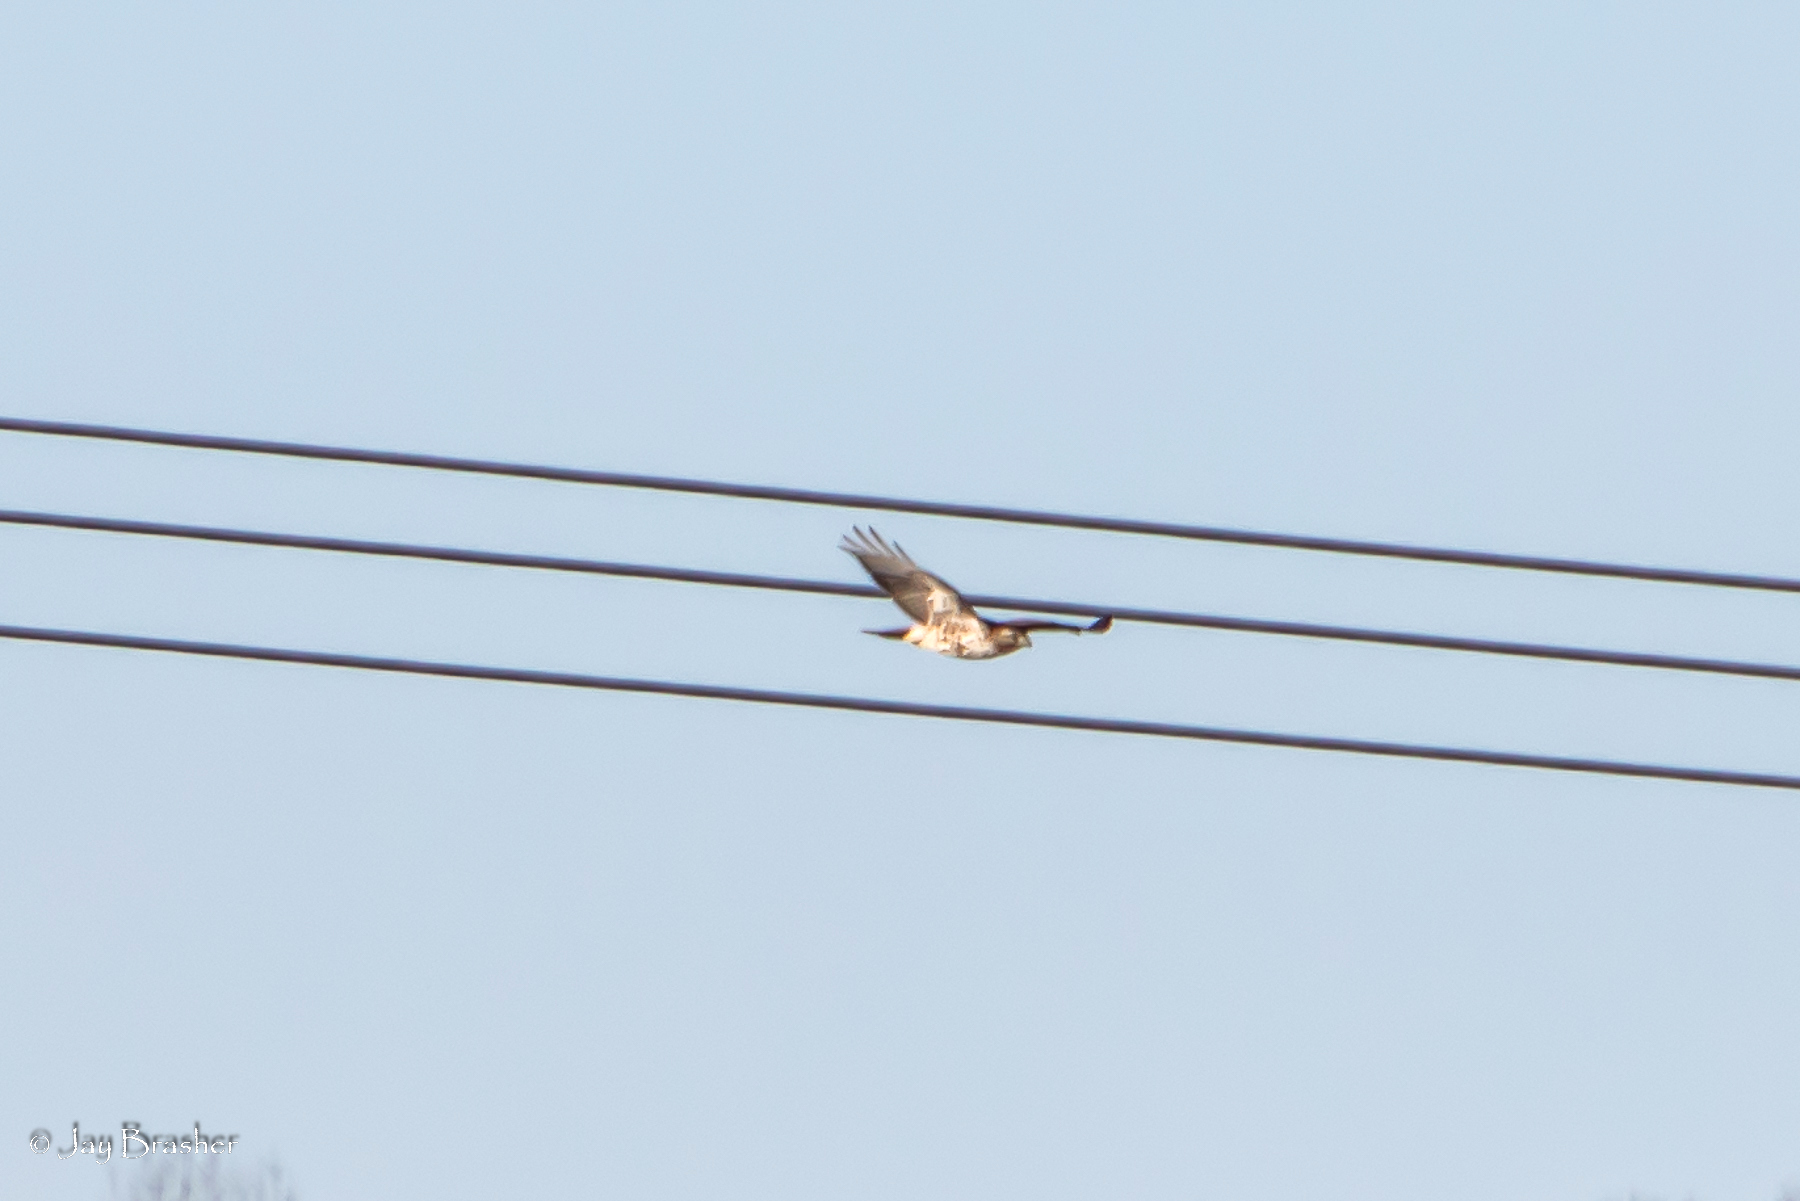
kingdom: Animalia
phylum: Chordata
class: Aves
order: Accipitriformes
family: Accipitridae
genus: Buteo
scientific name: Buteo jamaicensis
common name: Red-tailed hawk
